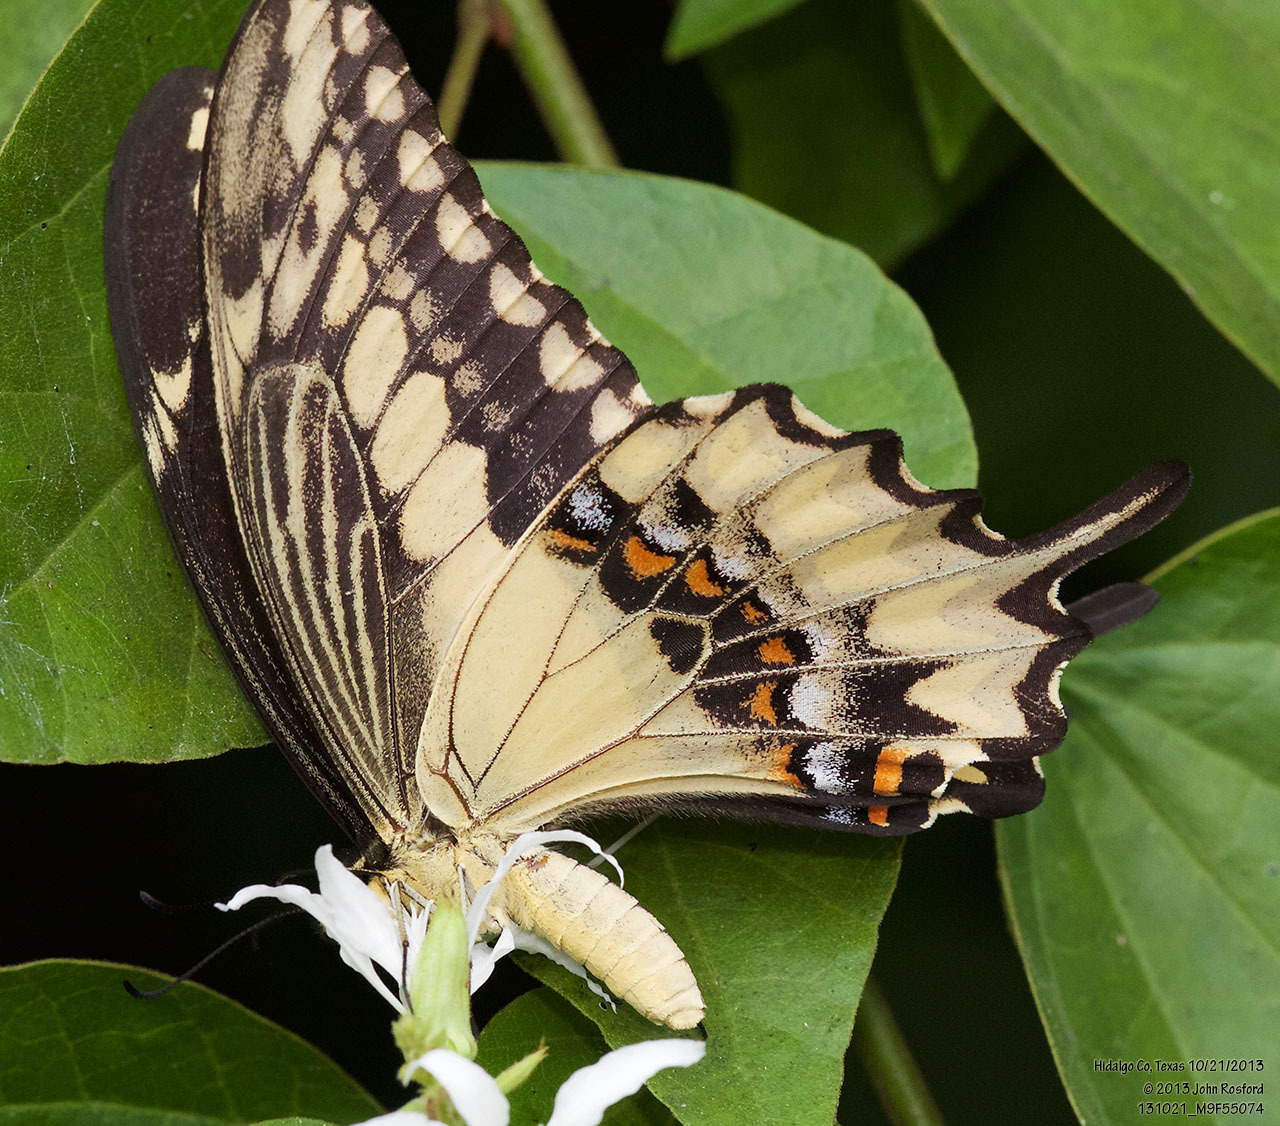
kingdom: Animalia
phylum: Arthropoda
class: Insecta
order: Lepidoptera
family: Papilionidae
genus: Papilio
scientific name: Papilio ornythion
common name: Ornythion swallowtail
